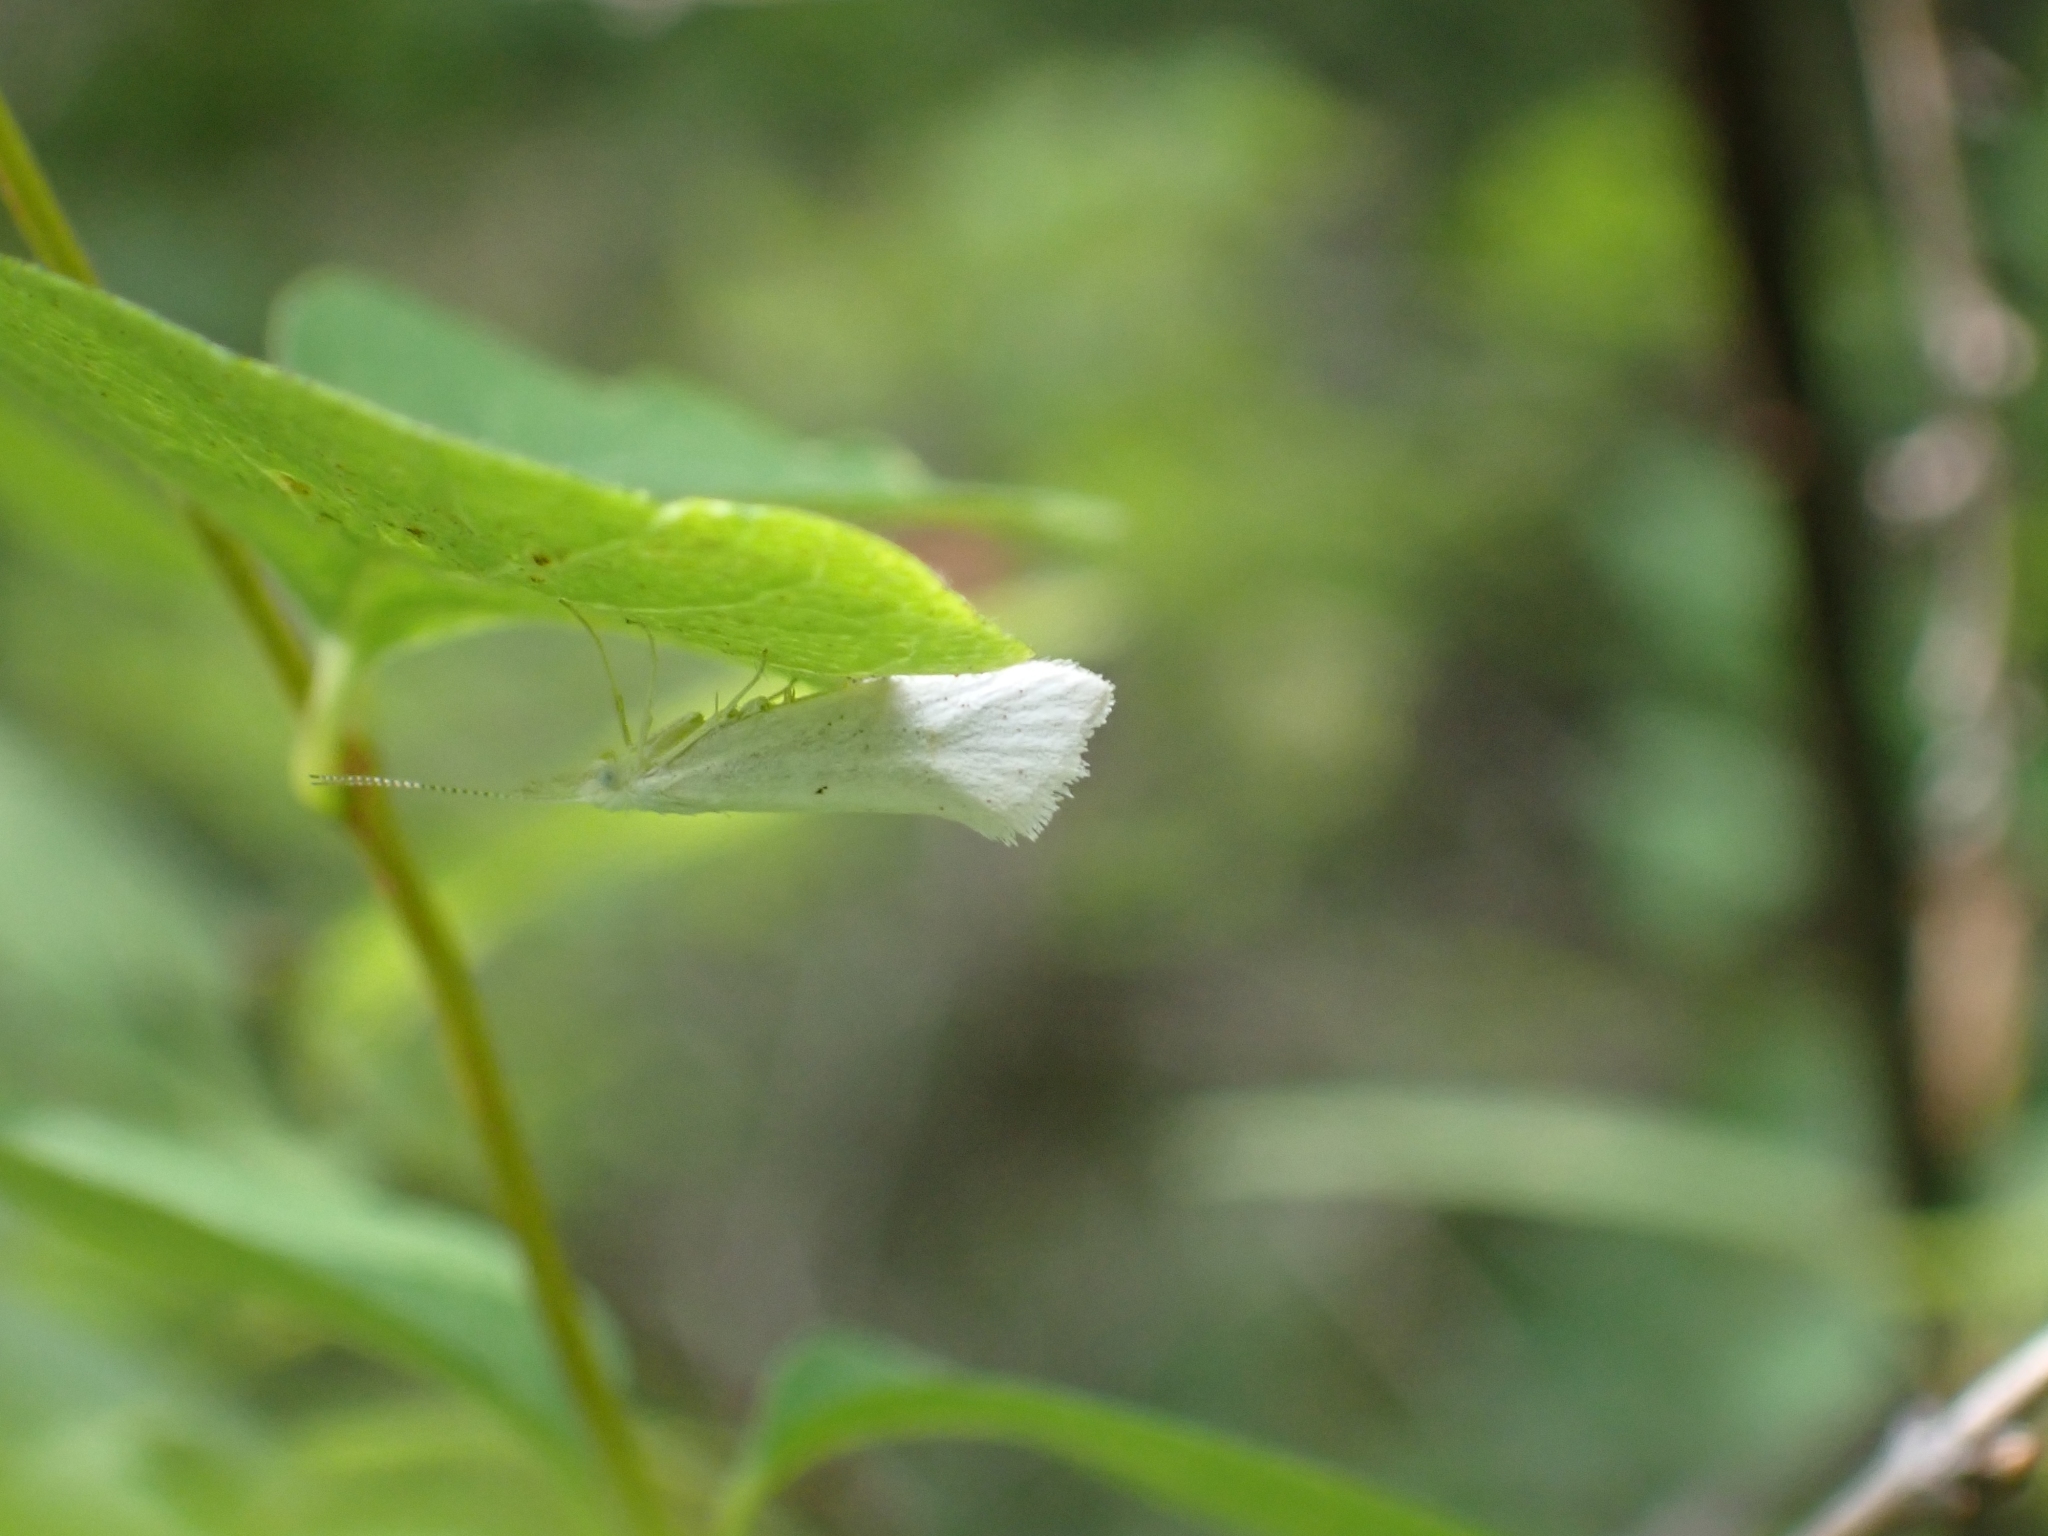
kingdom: Animalia
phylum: Arthropoda
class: Insecta
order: Lepidoptera
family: Ypsolophidae
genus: Euceratia
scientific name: Euceratia castella
